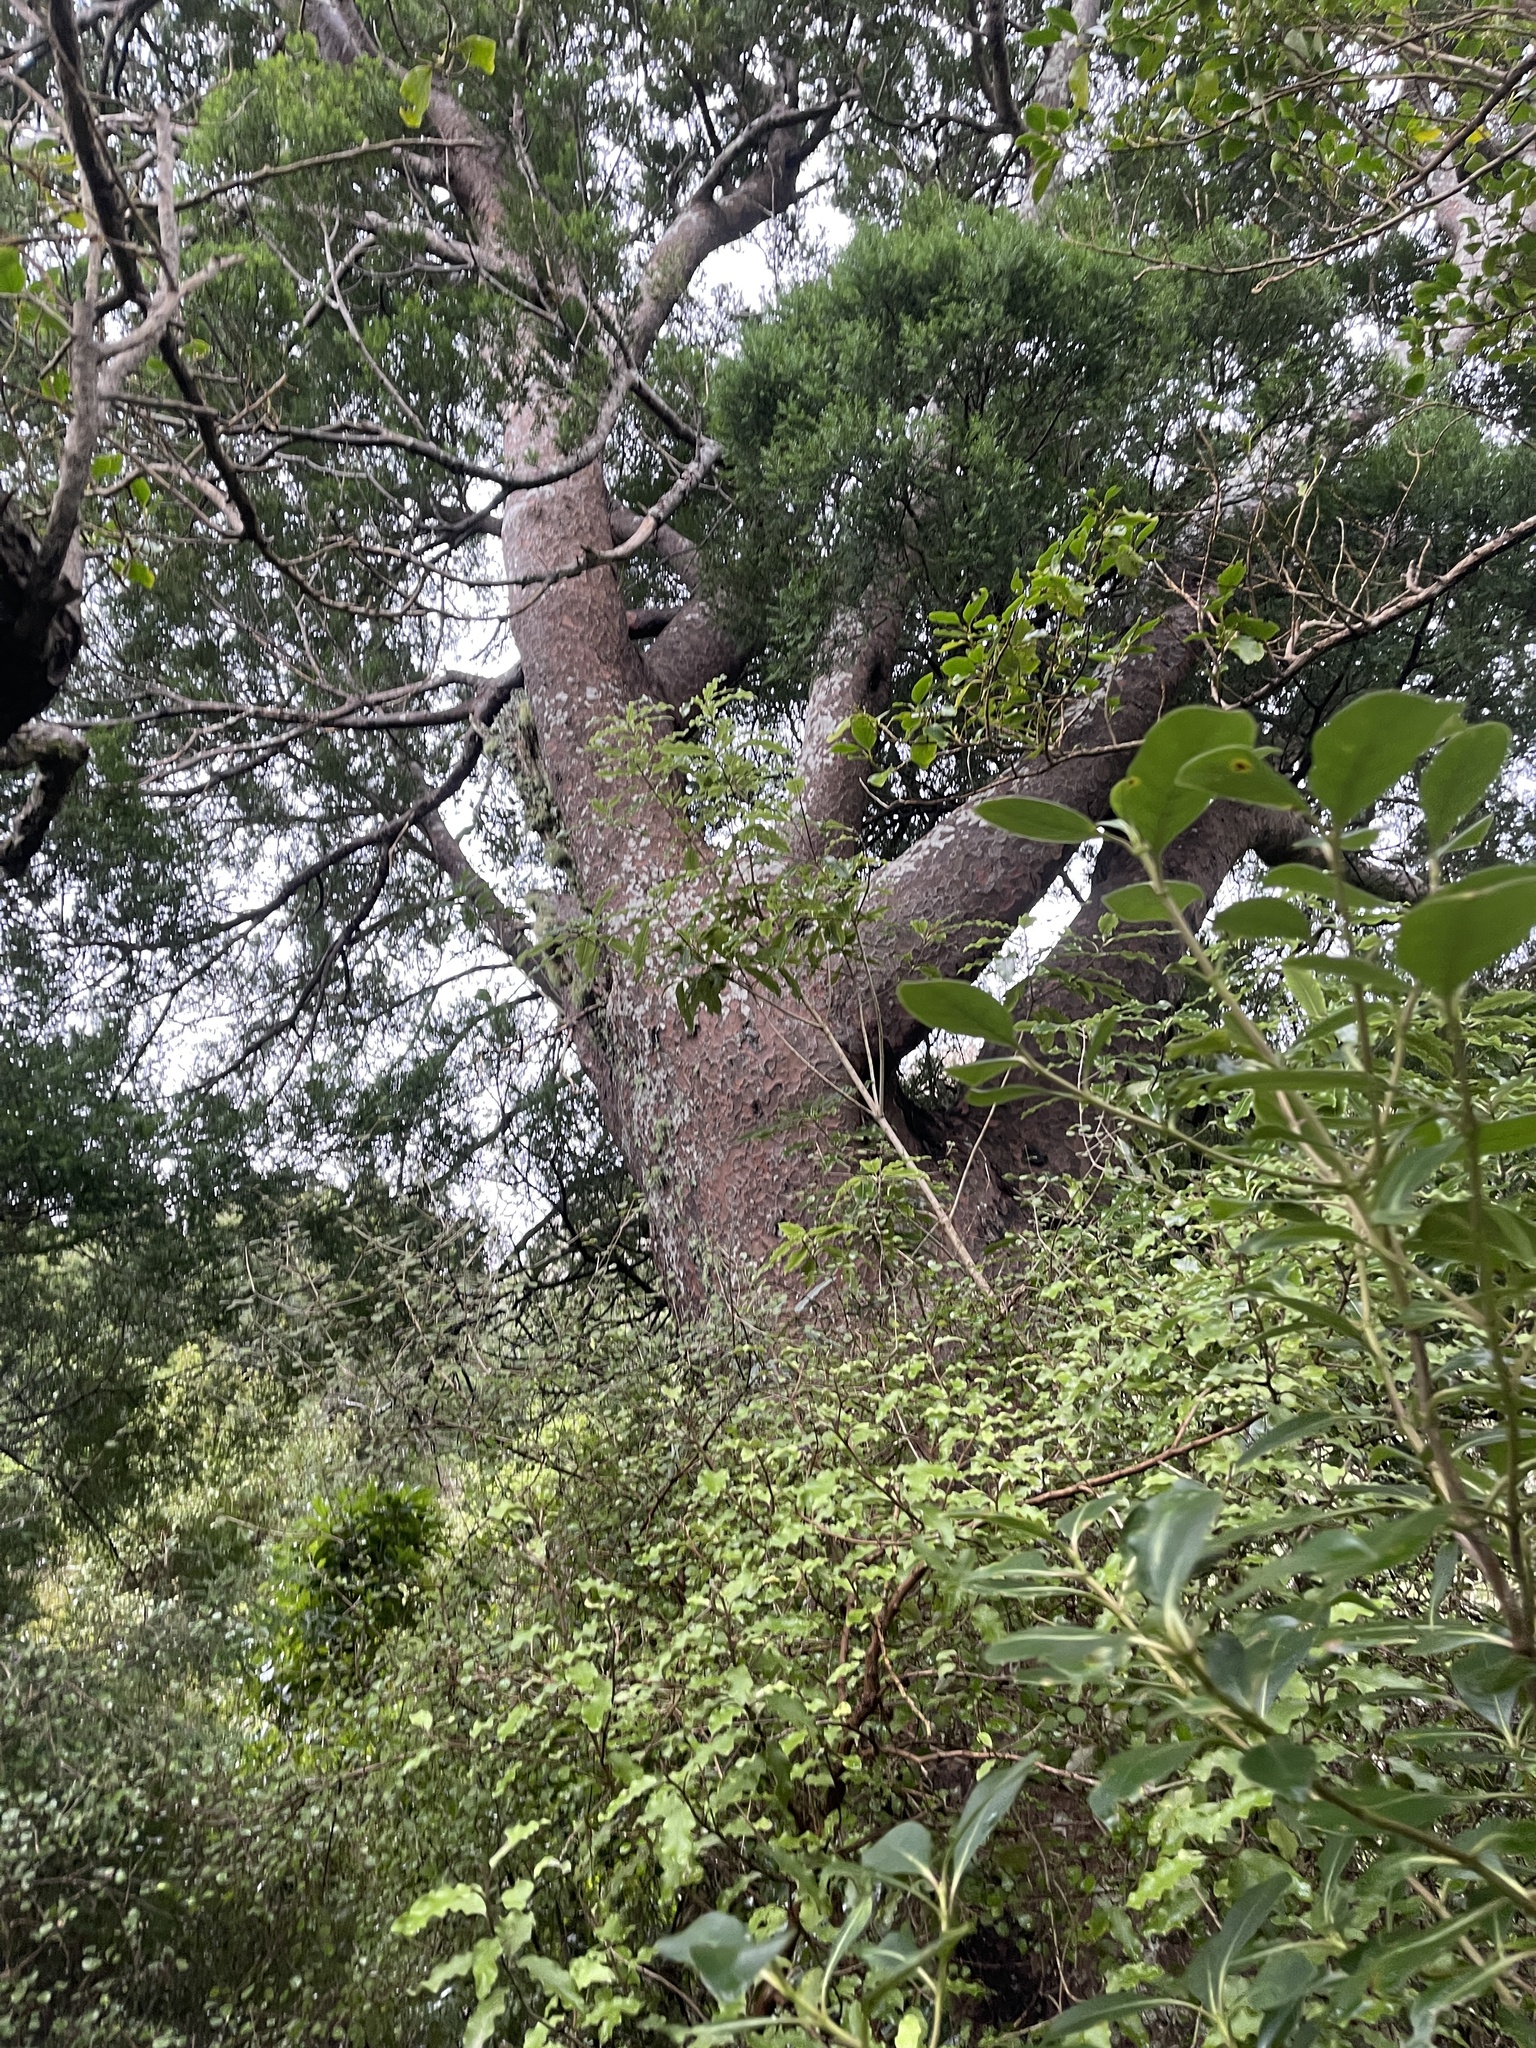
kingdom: Plantae
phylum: Tracheophyta
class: Pinopsida
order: Pinales
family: Podocarpaceae
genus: Prumnopitys
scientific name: Prumnopitys taxifolia
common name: Matai
